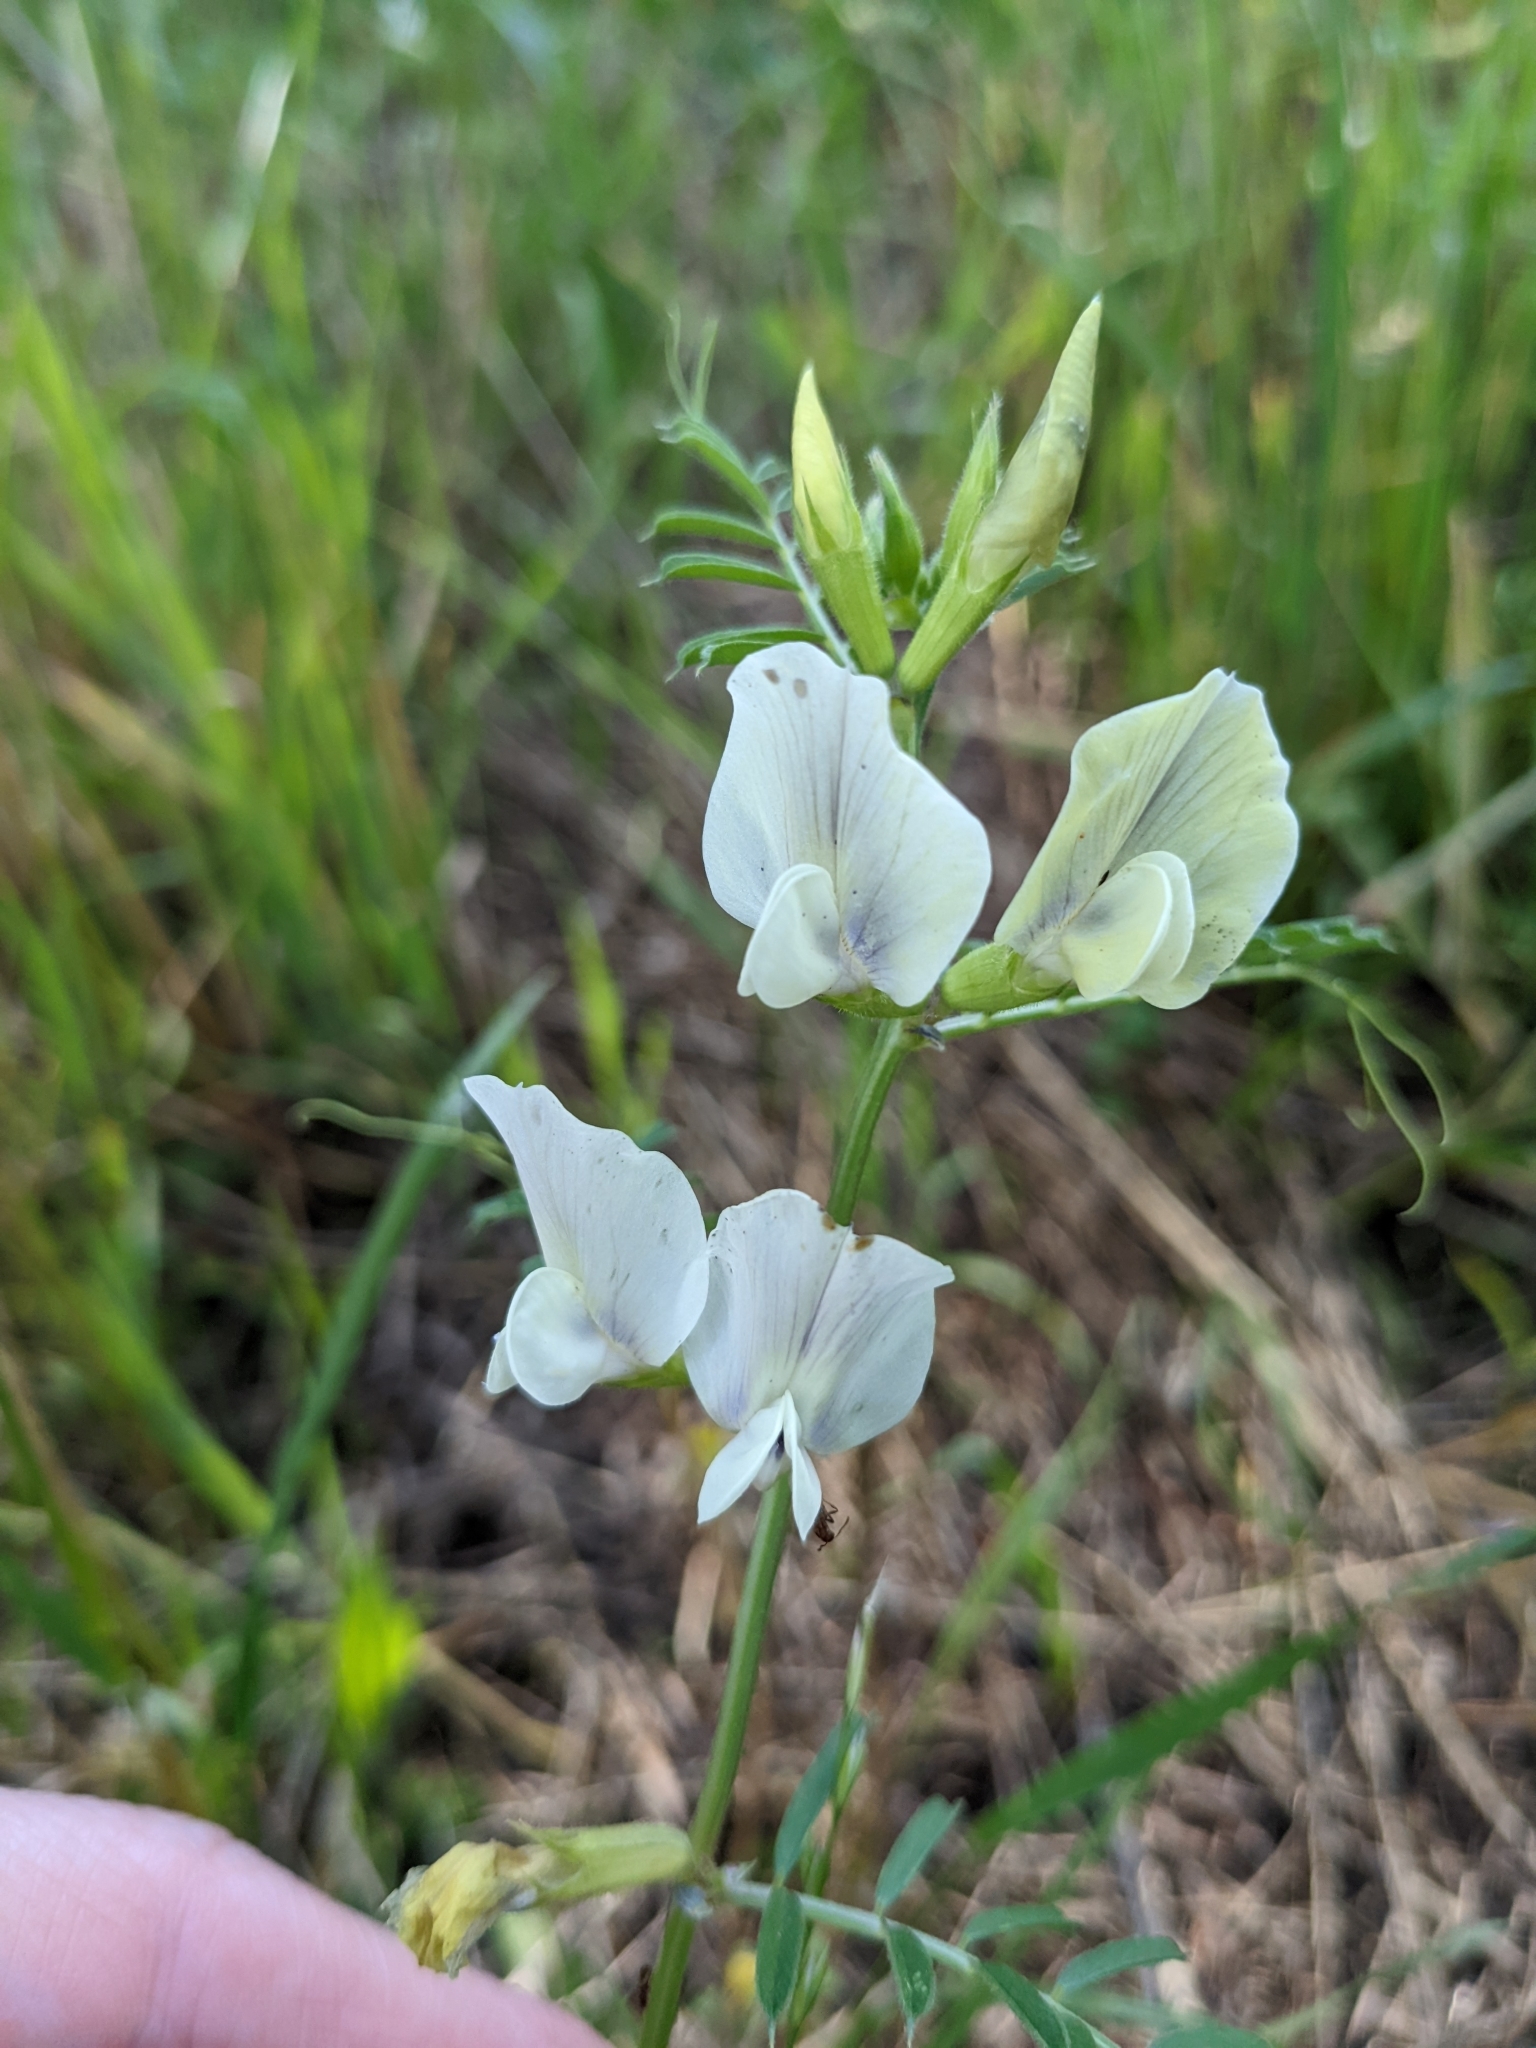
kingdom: Plantae
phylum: Tracheophyta
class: Magnoliopsida
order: Fabales
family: Fabaceae
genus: Vicia
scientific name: Vicia grandiflora
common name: Large yellow vetch
